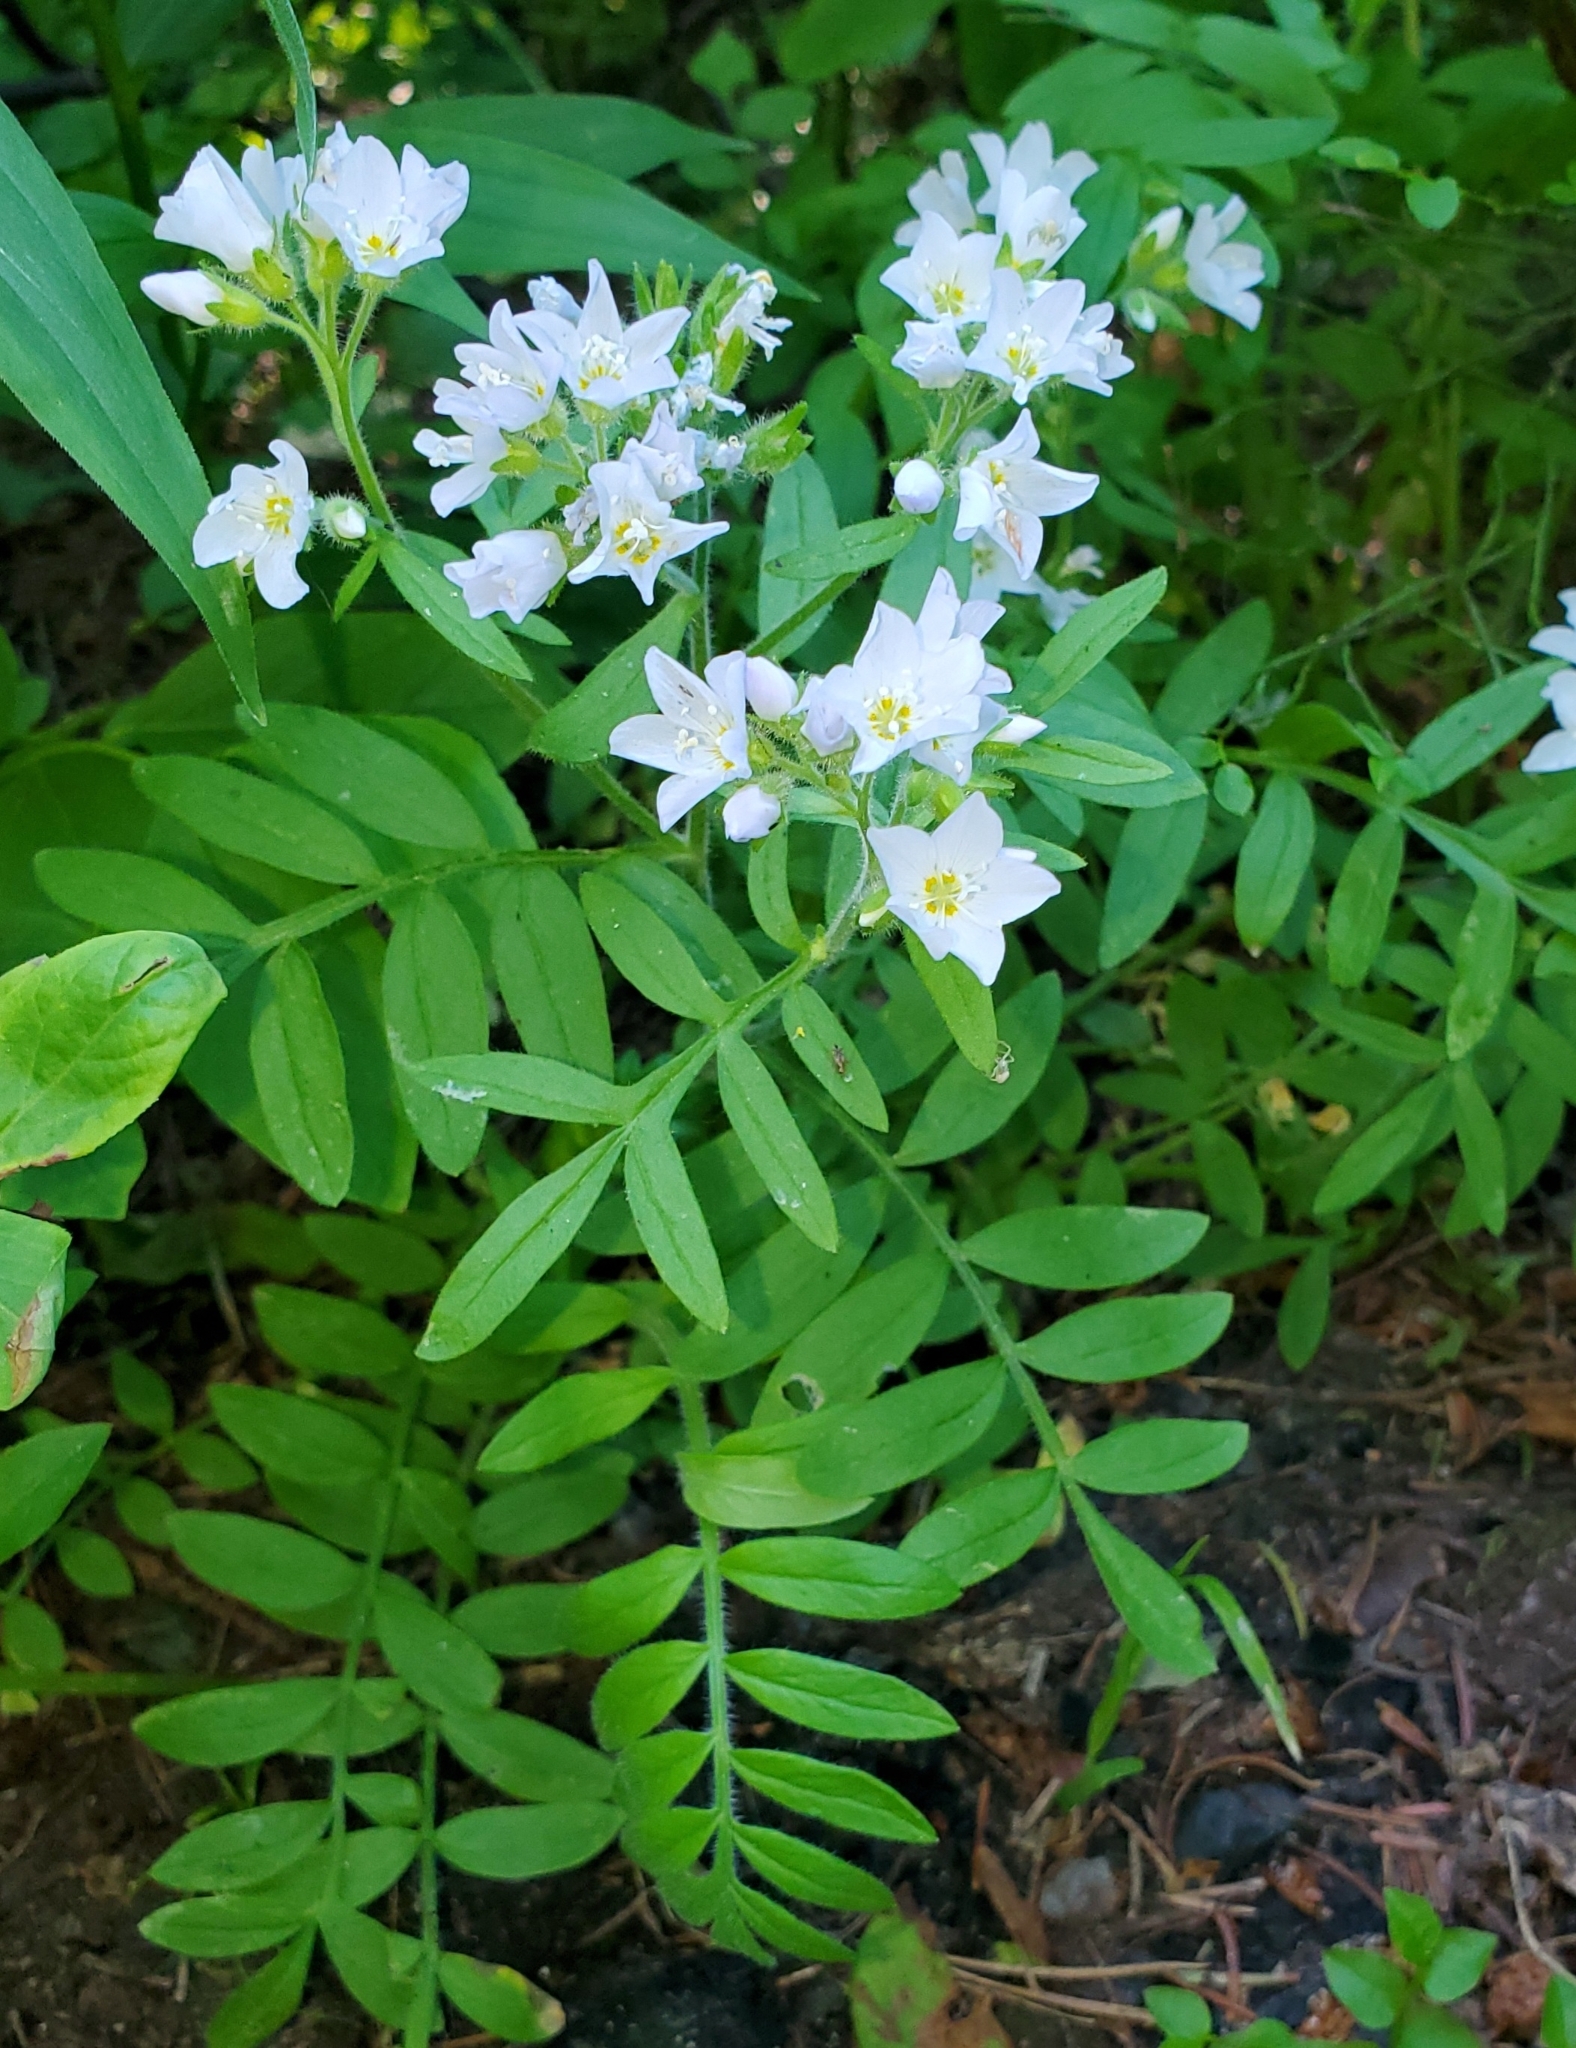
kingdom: Plantae
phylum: Tracheophyta
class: Magnoliopsida
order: Ericales
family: Polemoniaceae
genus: Polemonium
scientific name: Polemonium californicum
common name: California jacob's ladder
